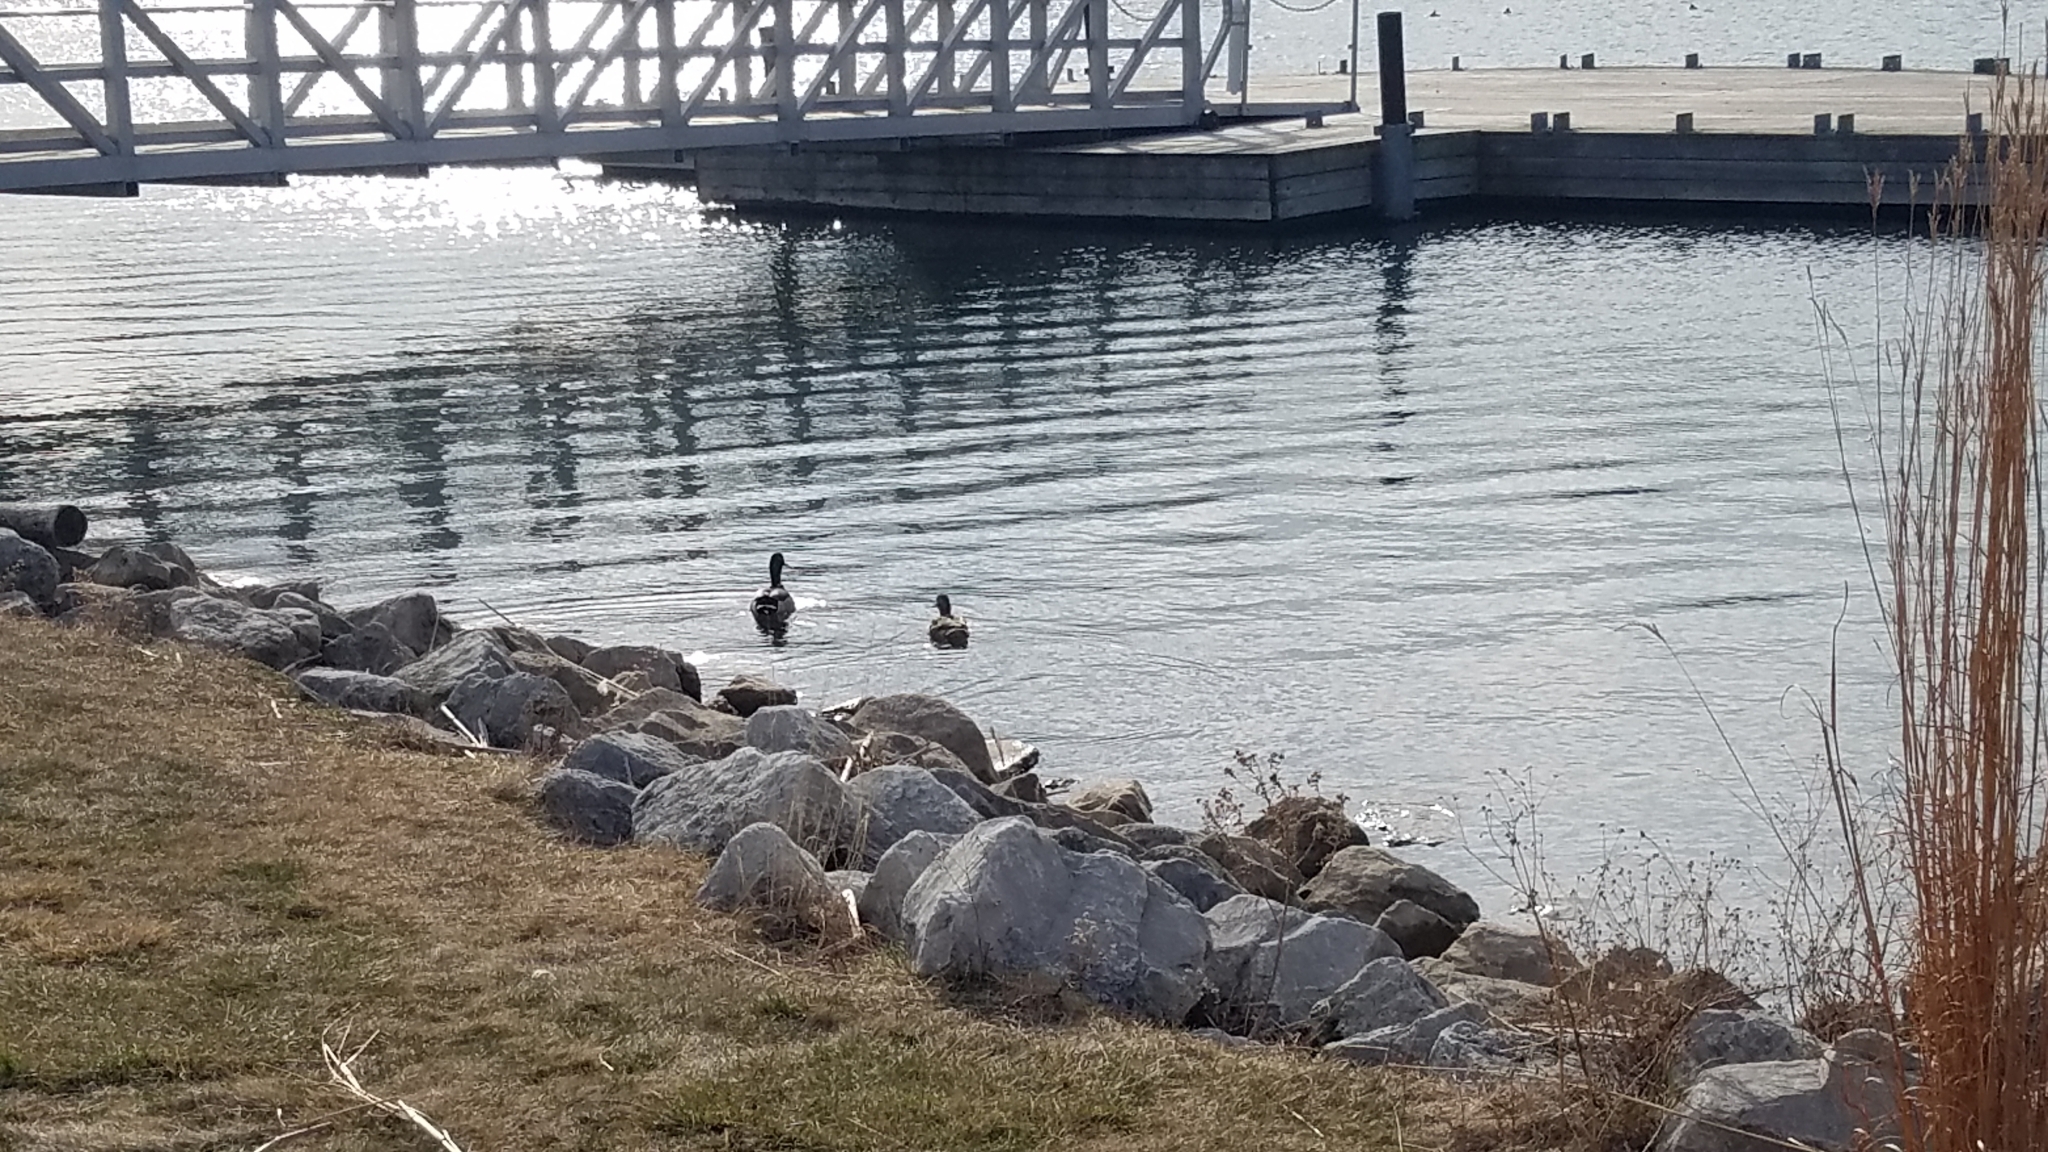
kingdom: Animalia
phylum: Chordata
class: Aves
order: Anseriformes
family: Anatidae
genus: Anas
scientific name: Anas platyrhynchos
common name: Mallard
